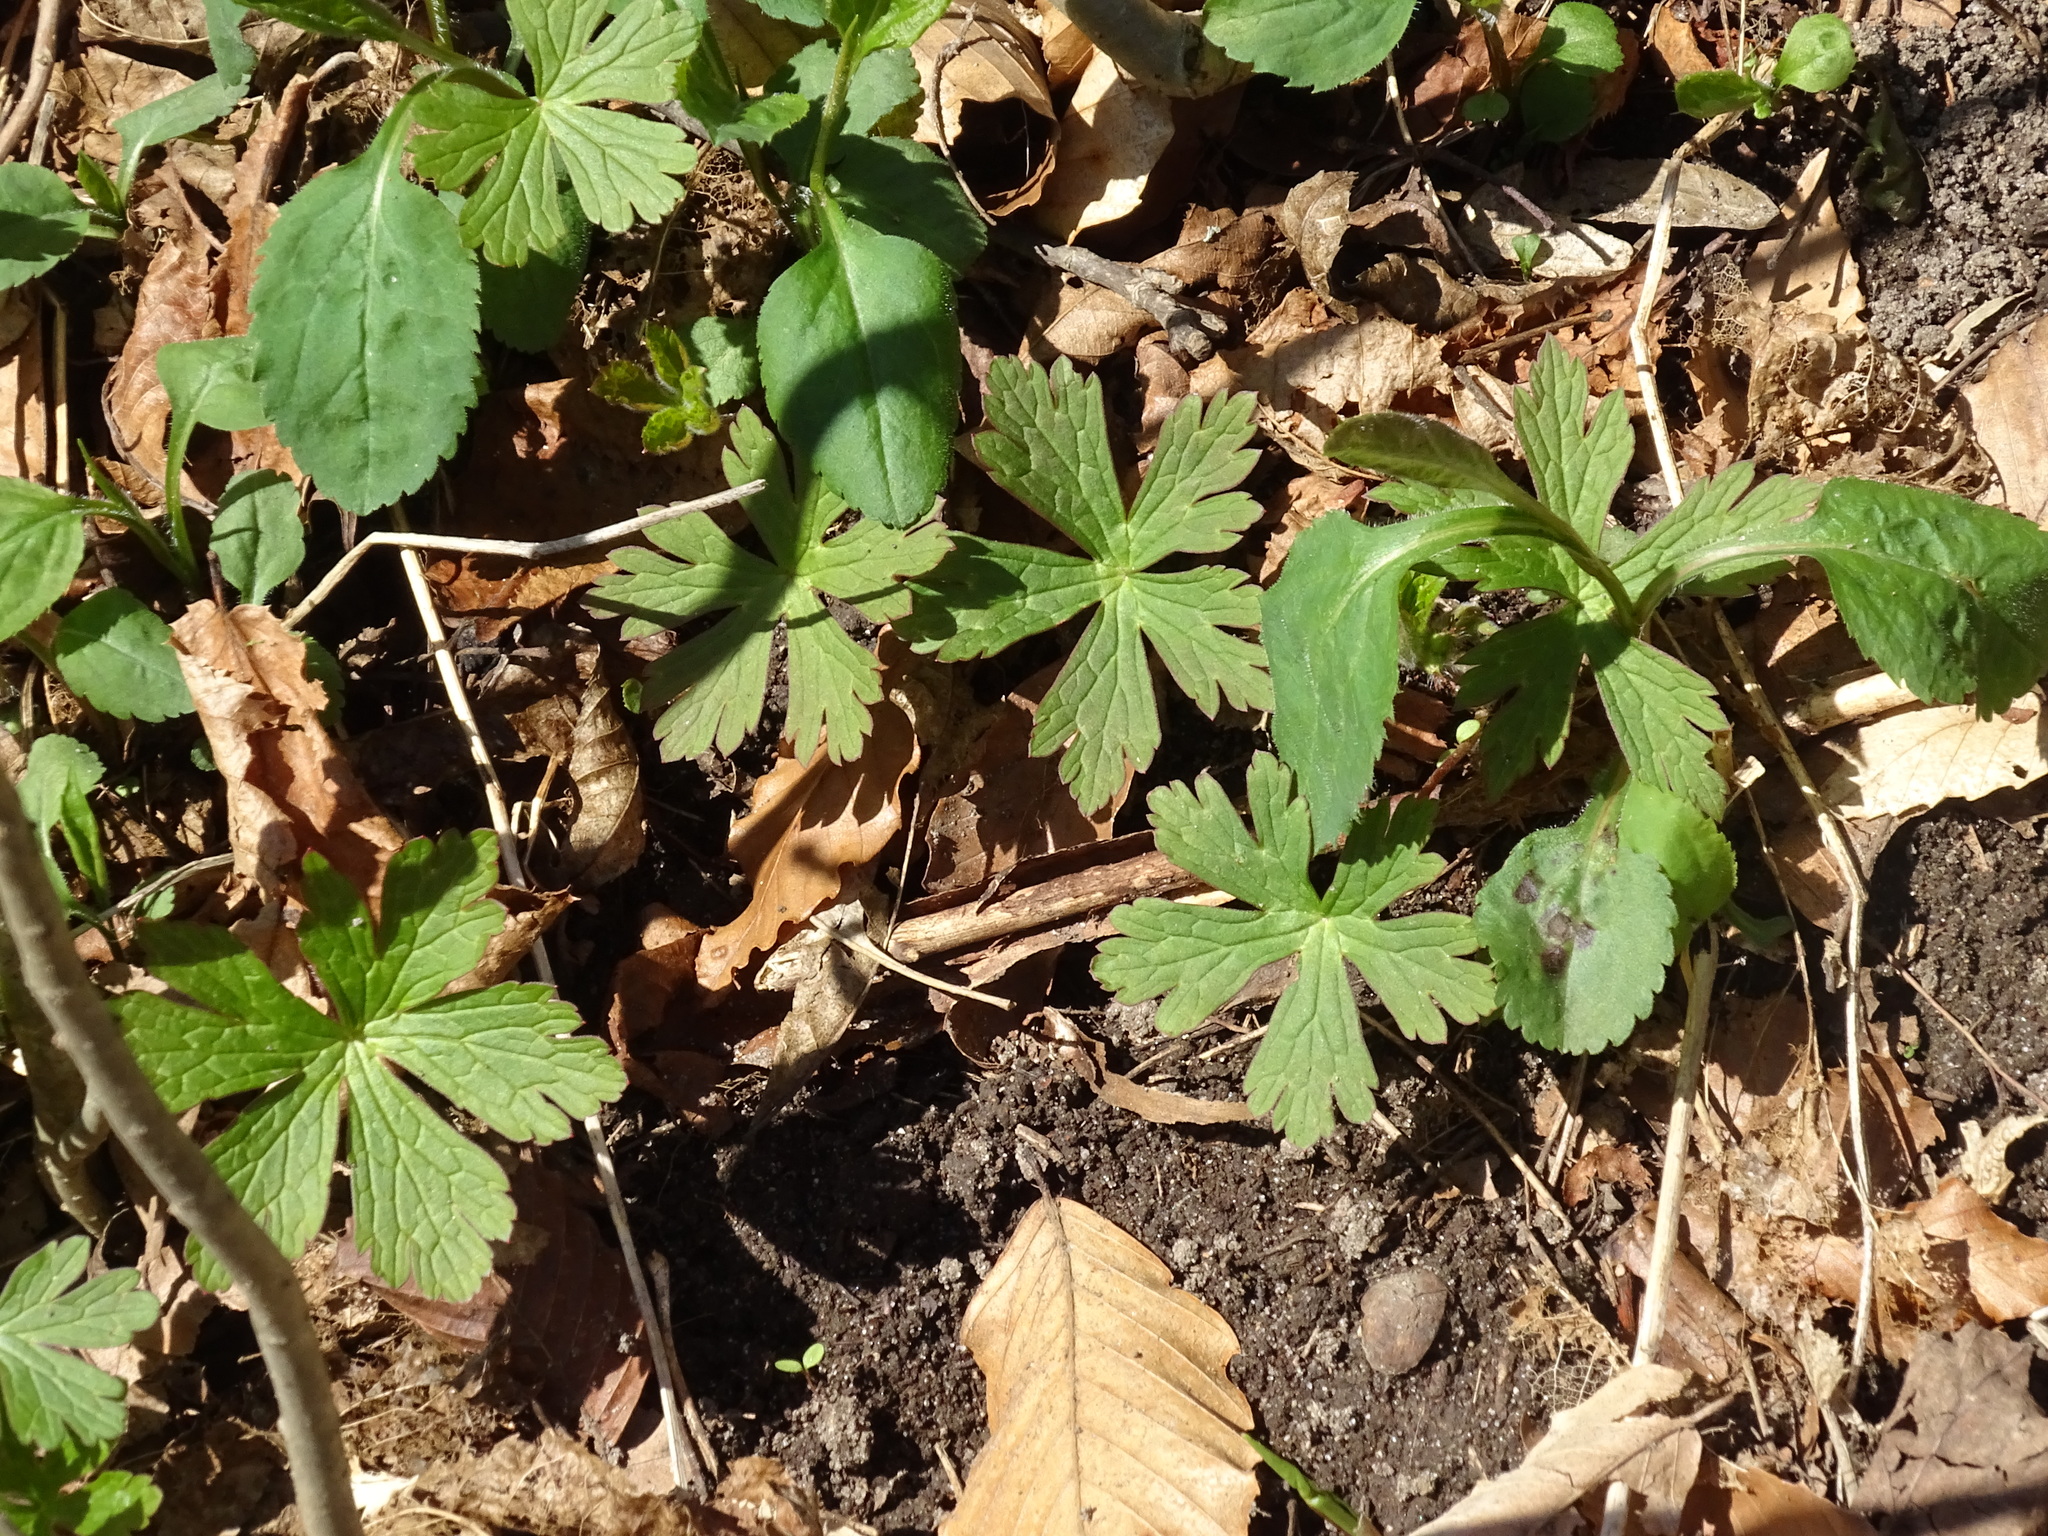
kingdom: Plantae
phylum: Tracheophyta
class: Magnoliopsida
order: Geraniales
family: Geraniaceae
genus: Geranium
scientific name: Geranium maculatum
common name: Spotted geranium
